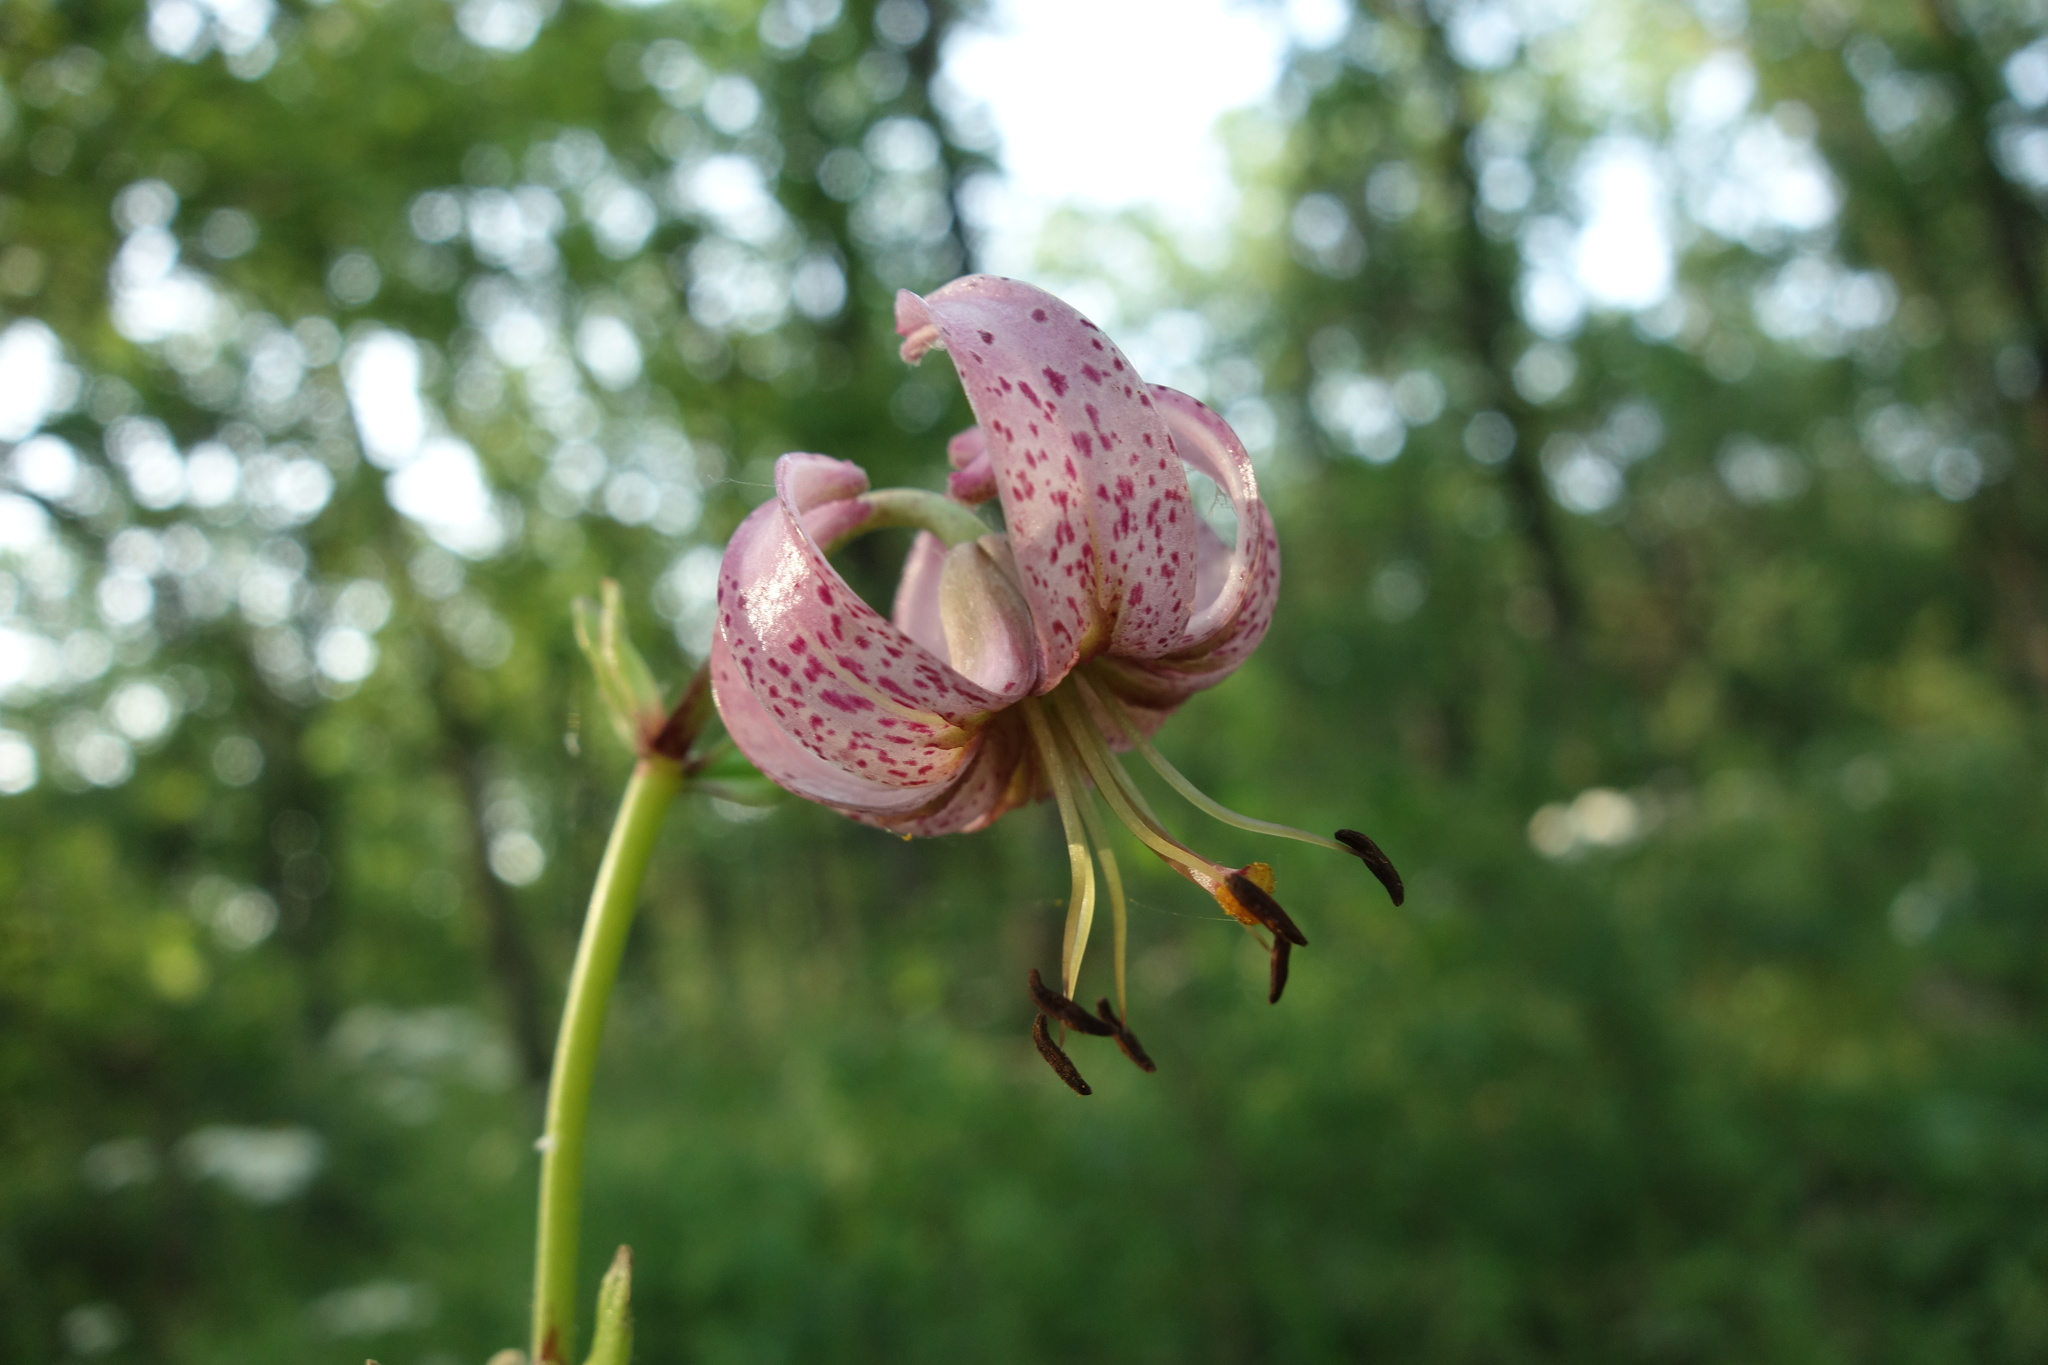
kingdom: Plantae
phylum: Tracheophyta
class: Liliopsida
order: Liliales
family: Liliaceae
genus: Lilium
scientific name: Lilium martagon
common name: Martagon lily
